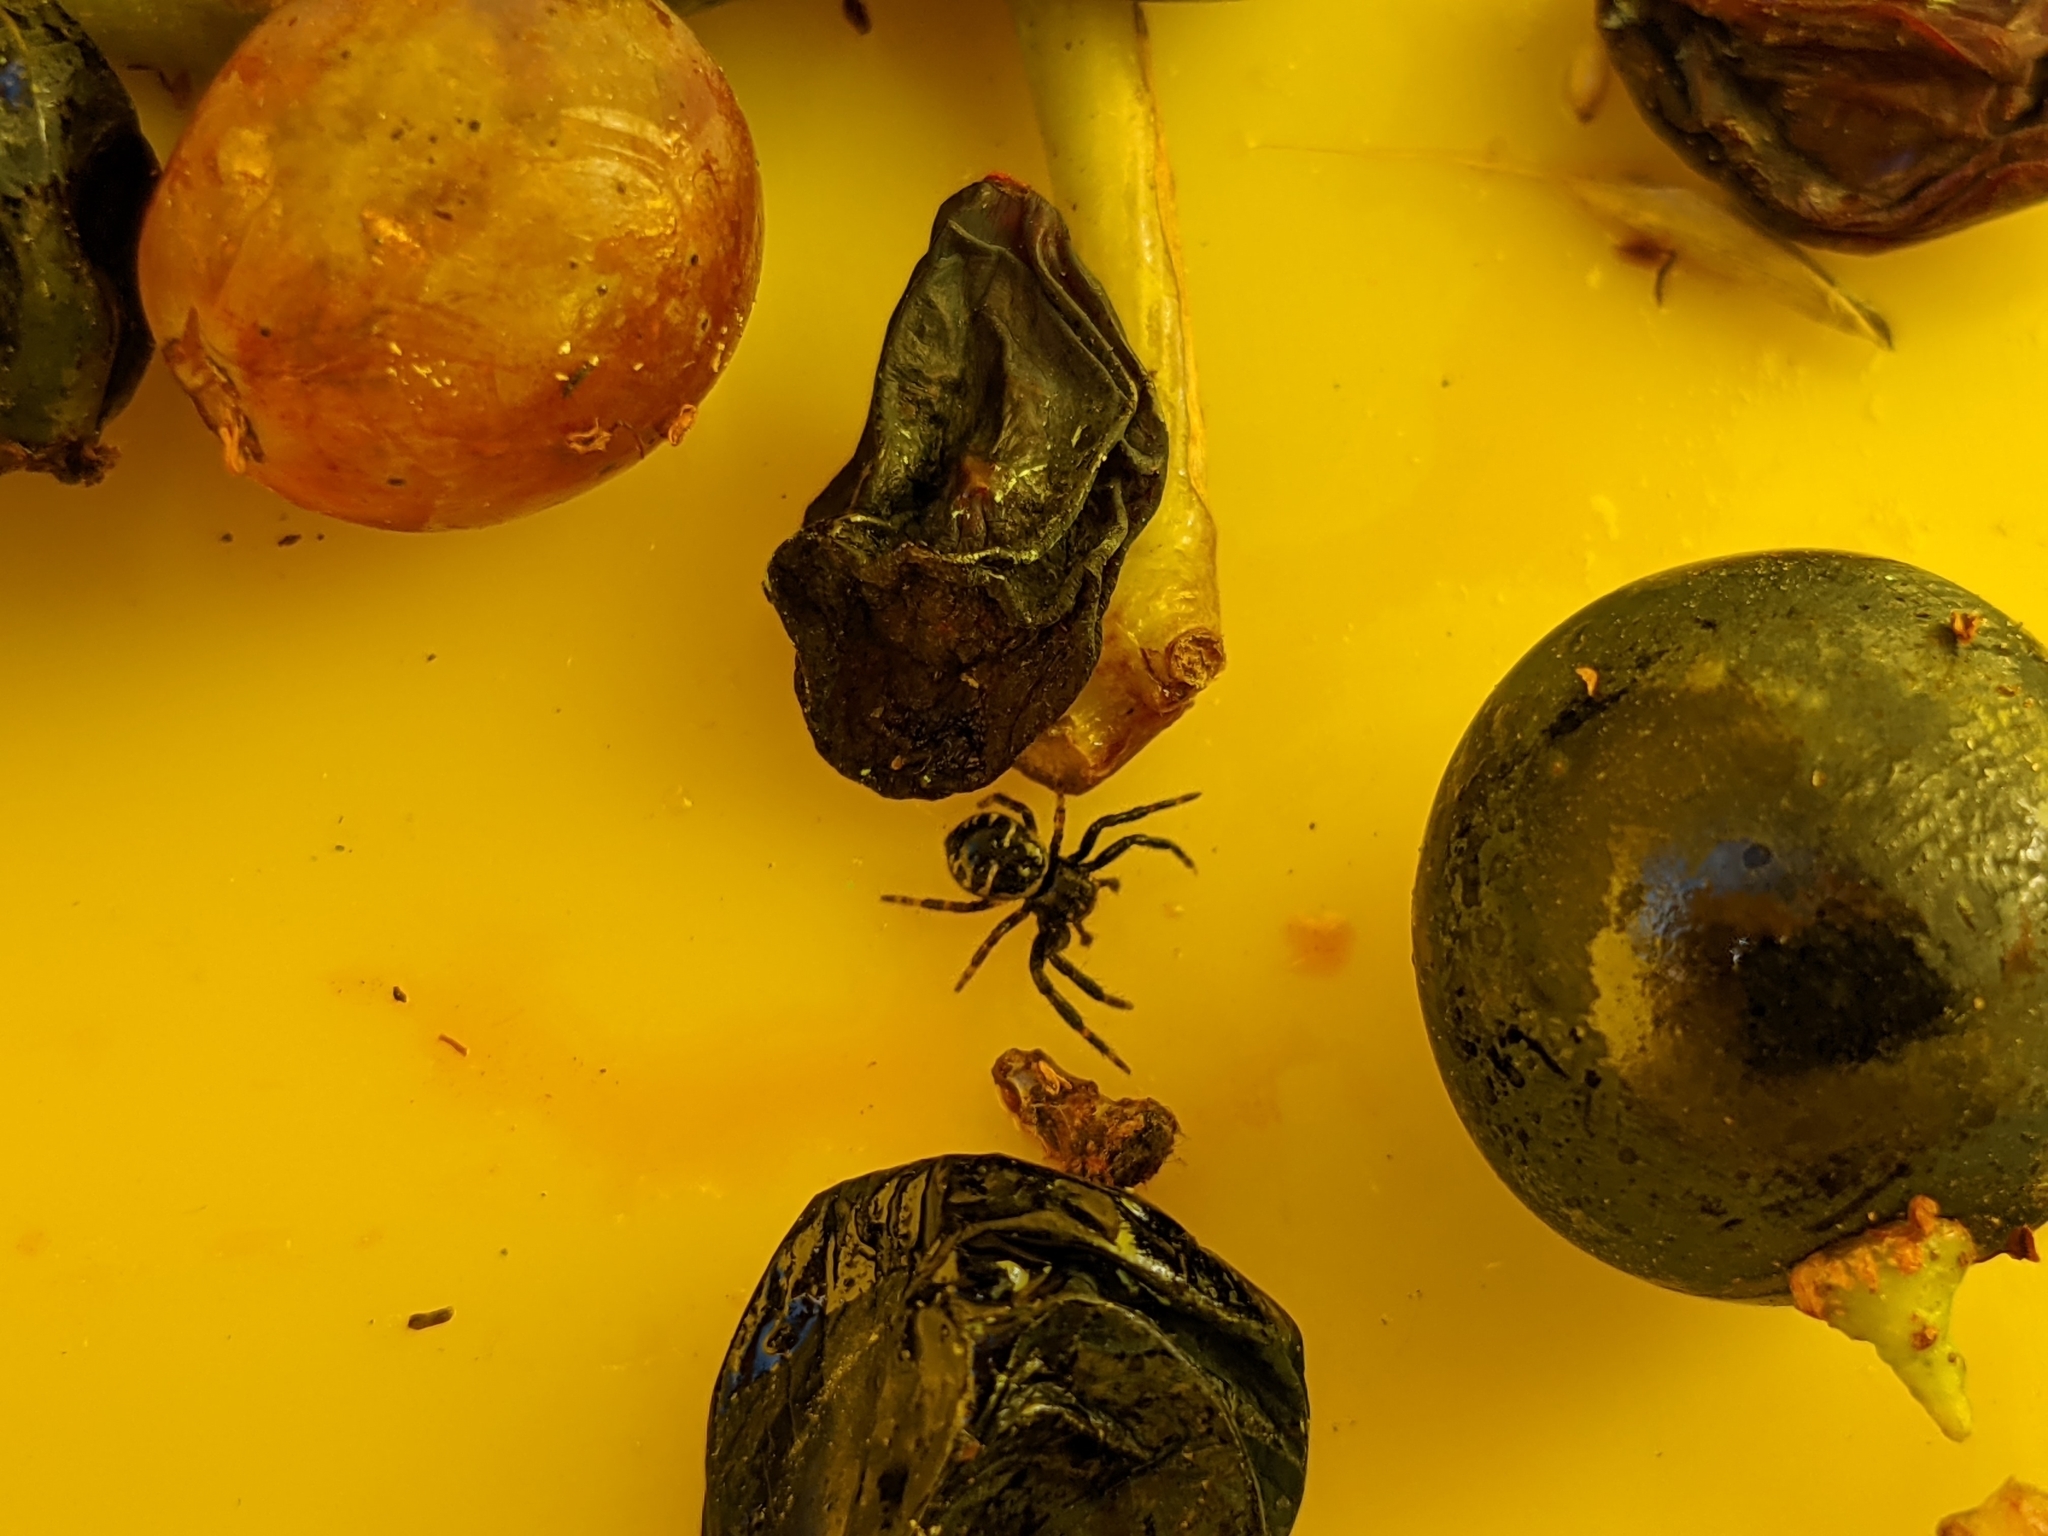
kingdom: Animalia
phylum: Arthropoda
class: Arachnida
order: Araneae
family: Thomisidae
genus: Synema
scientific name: Synema globosum
